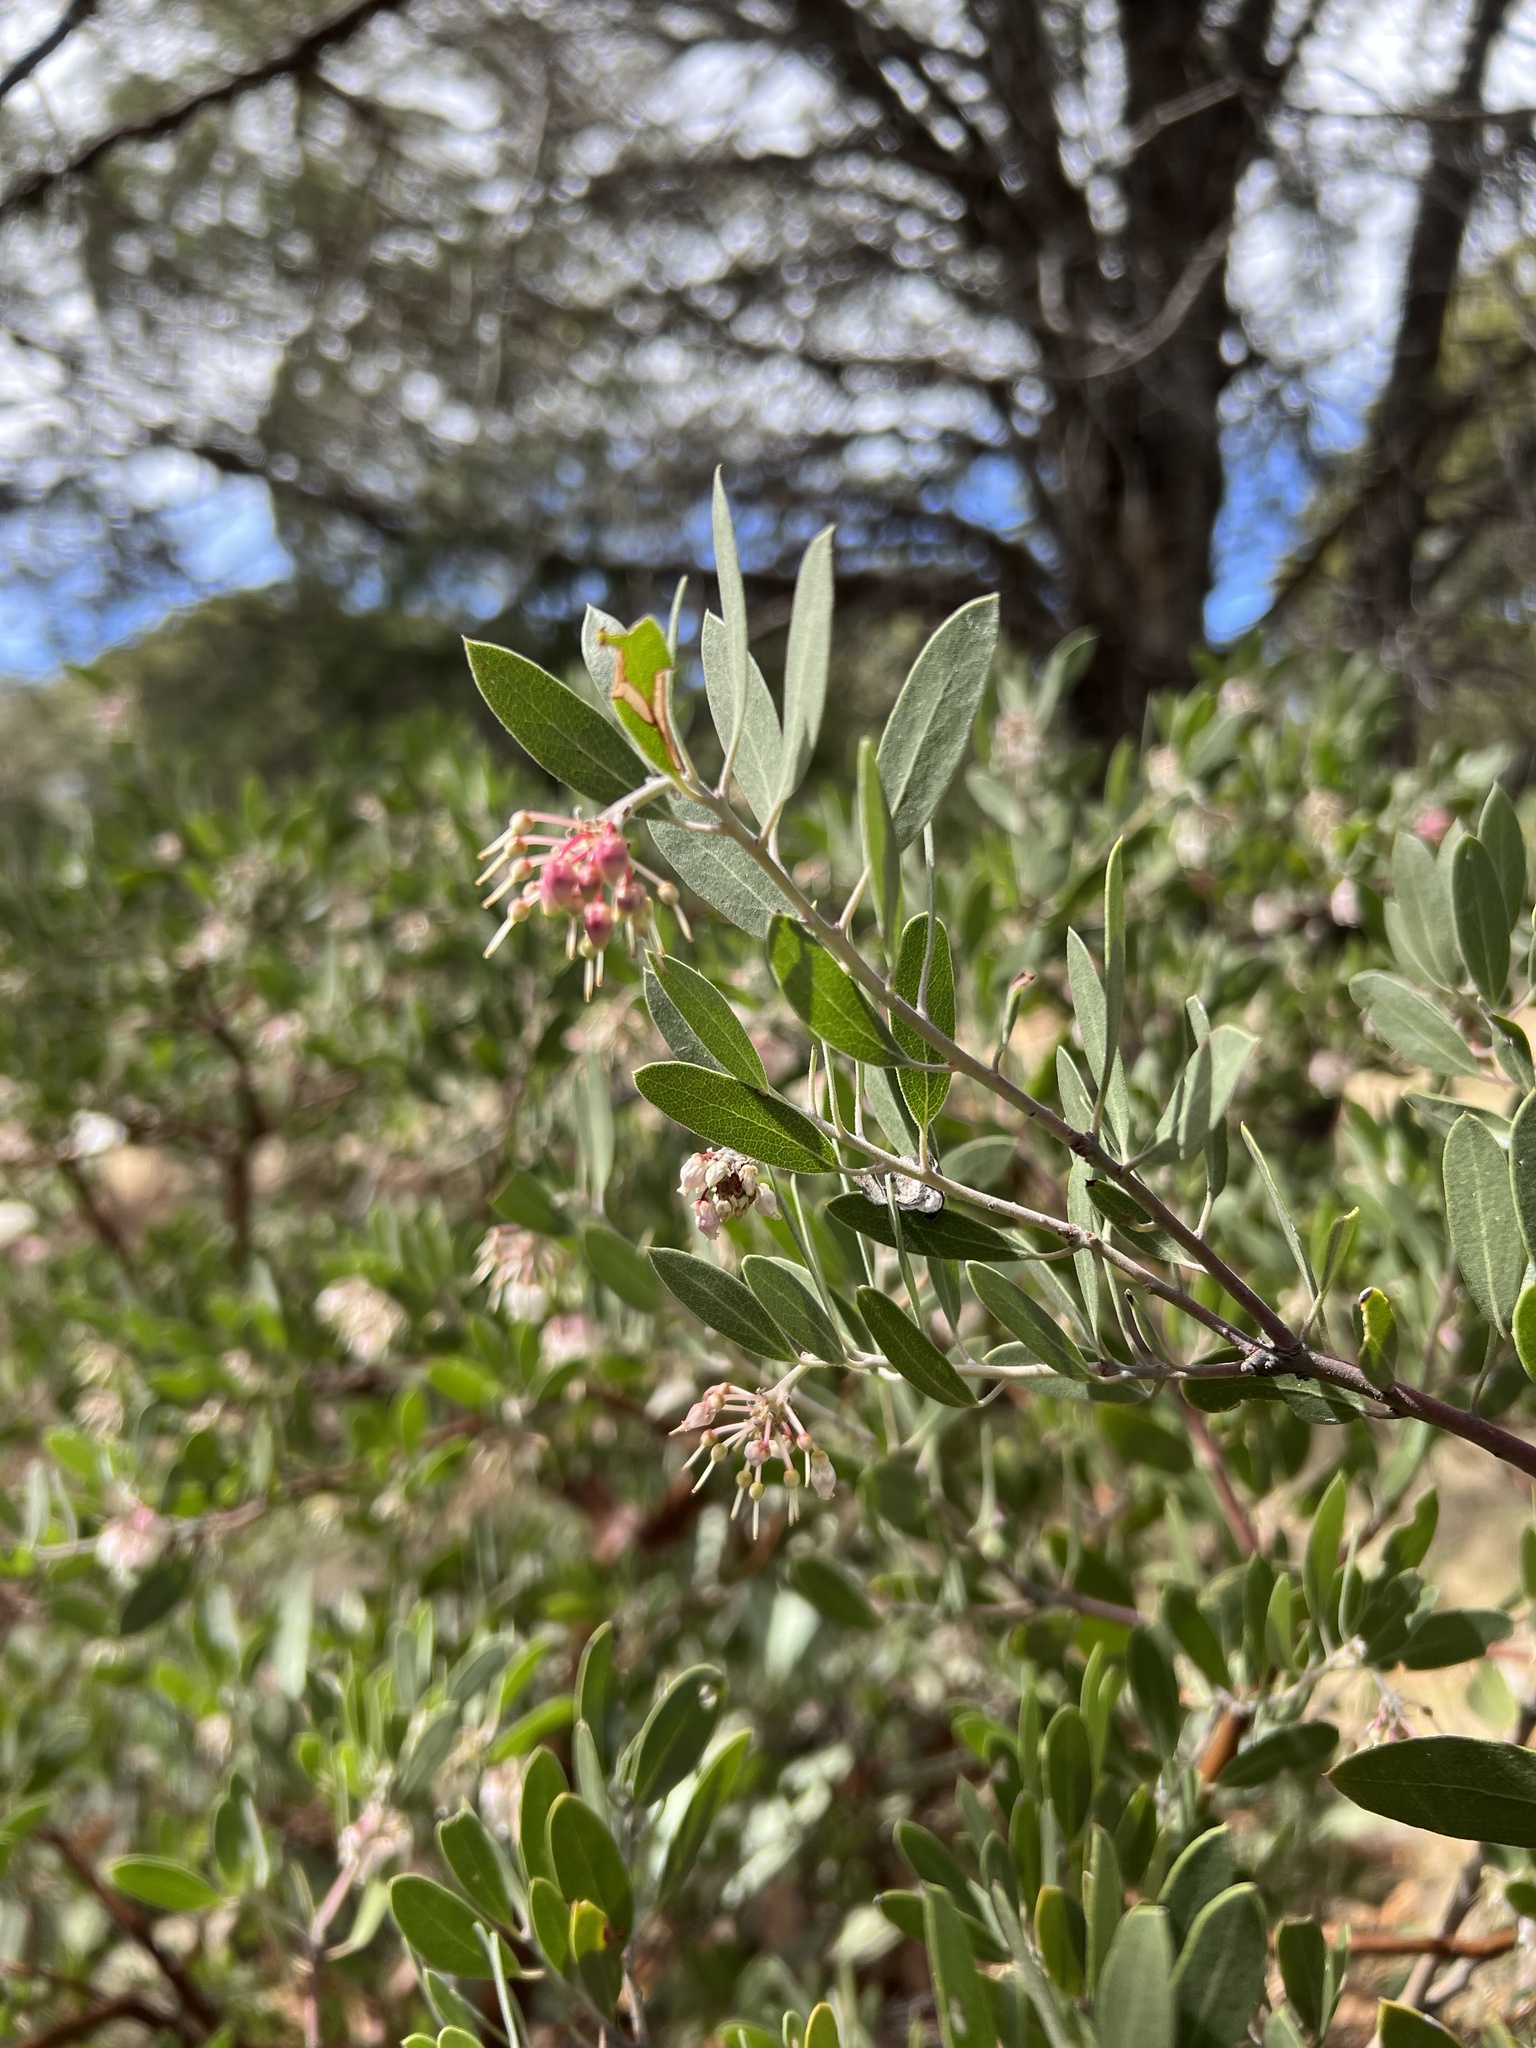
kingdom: Plantae
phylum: Tracheophyta
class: Magnoliopsida
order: Ericales
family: Ericaceae
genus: Arctostaphylos
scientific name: Arctostaphylos pungens
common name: Mexican manzanita
